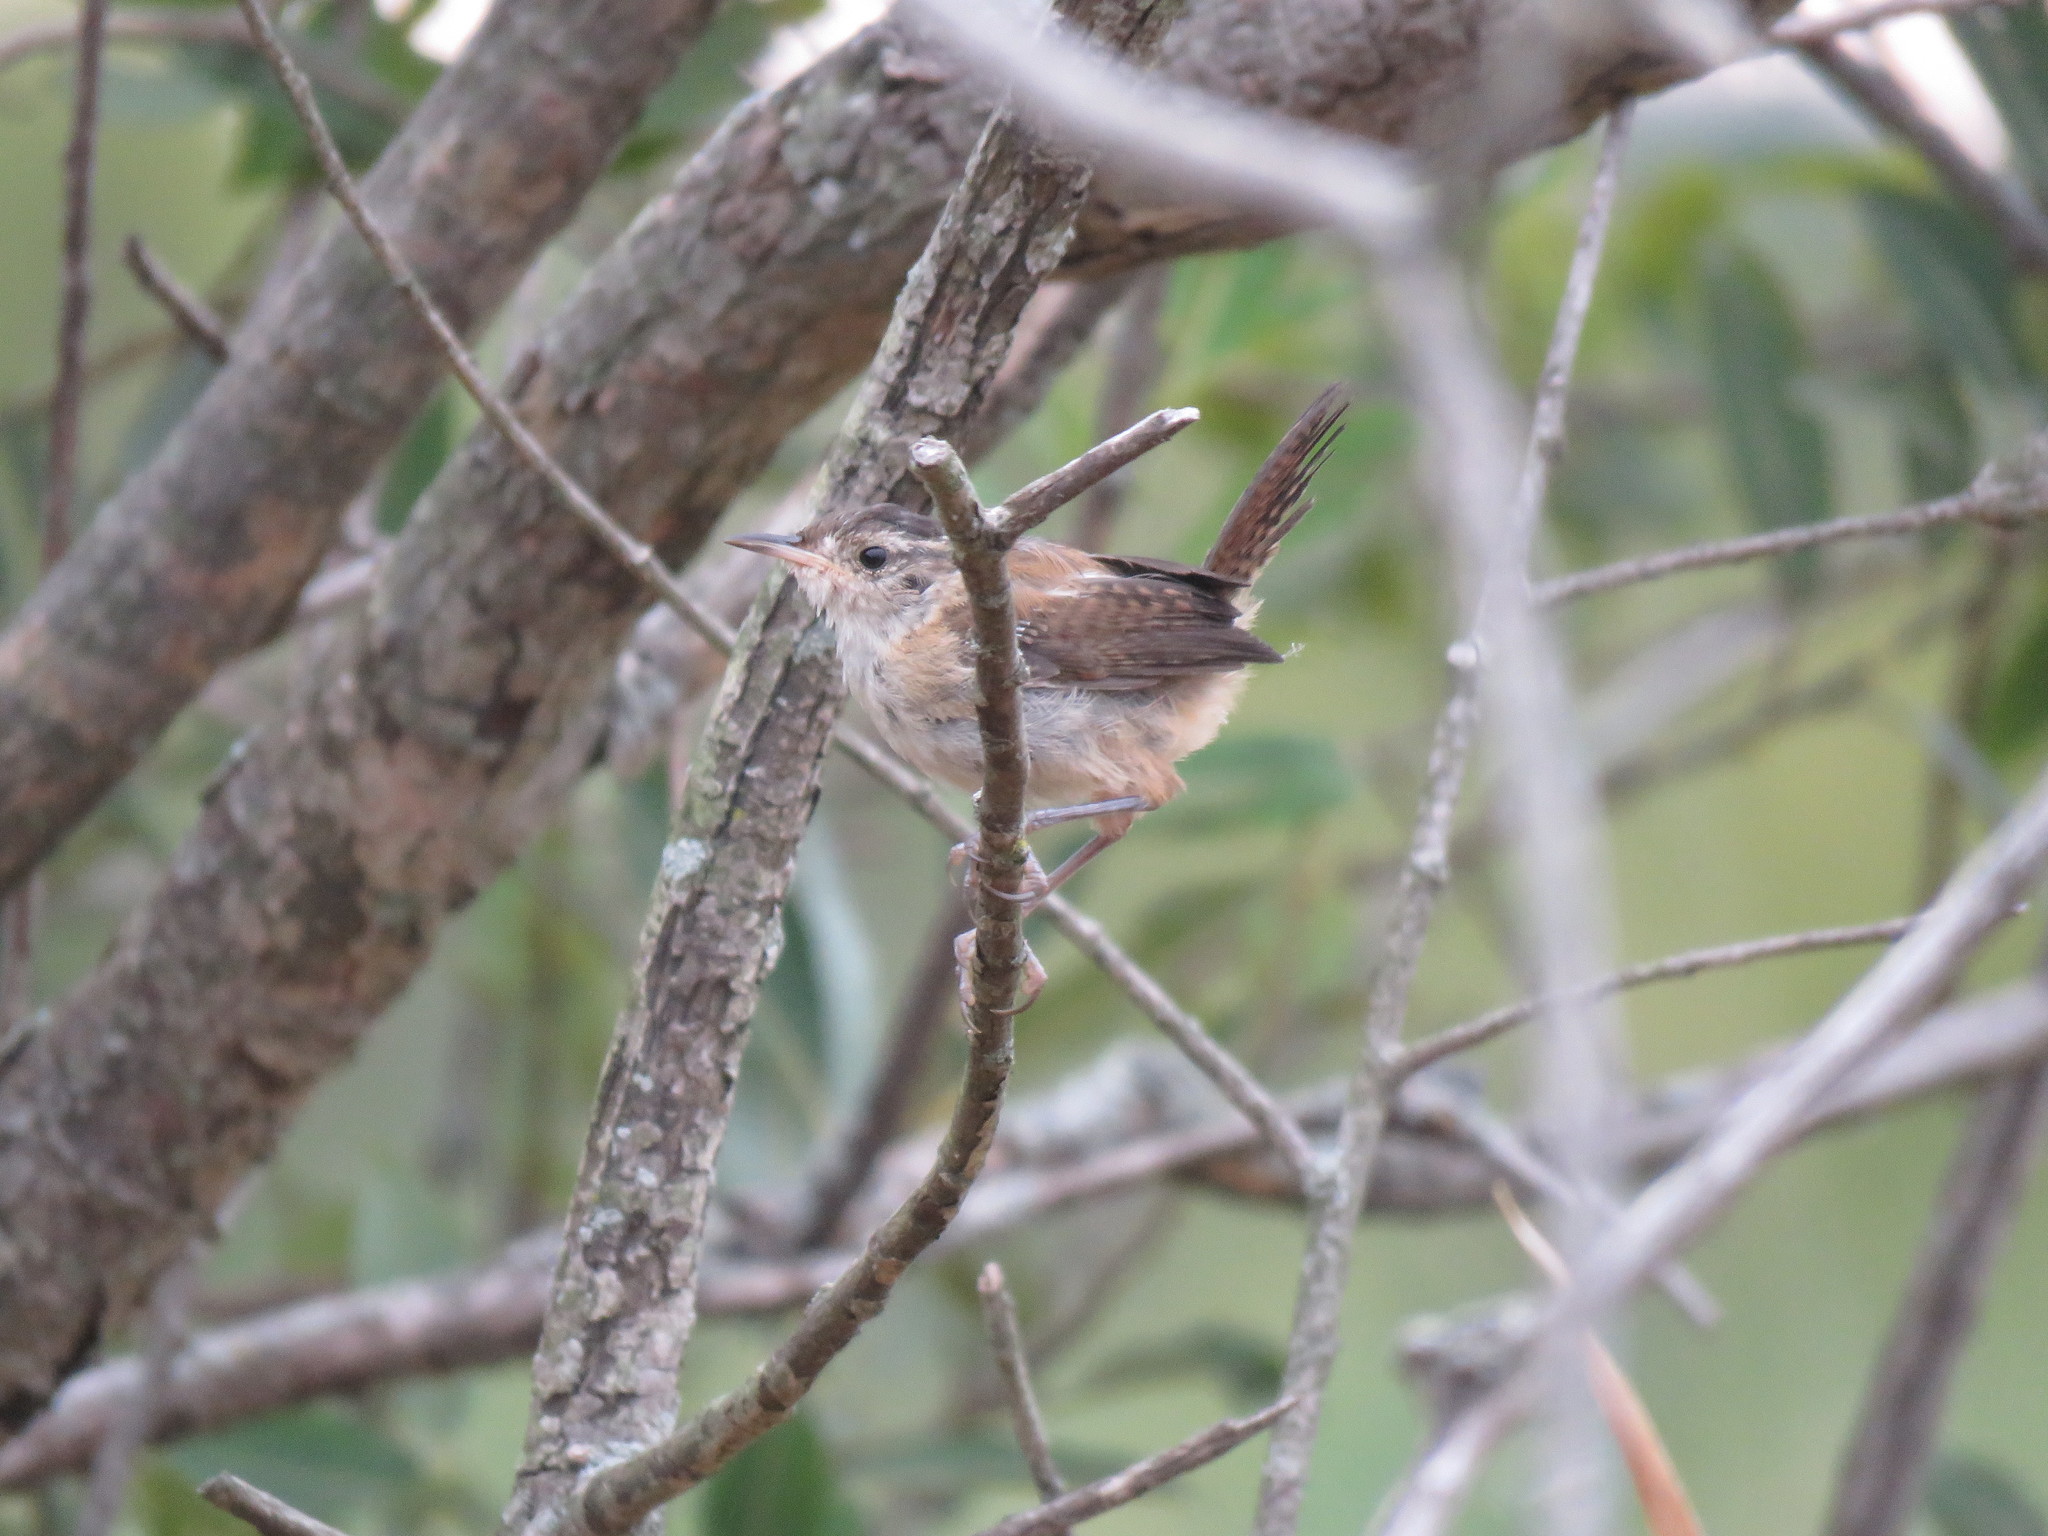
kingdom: Animalia
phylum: Chordata
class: Aves
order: Passeriformes
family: Troglodytidae
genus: Cistothorus
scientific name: Cistothorus palustris
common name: Marsh wren
